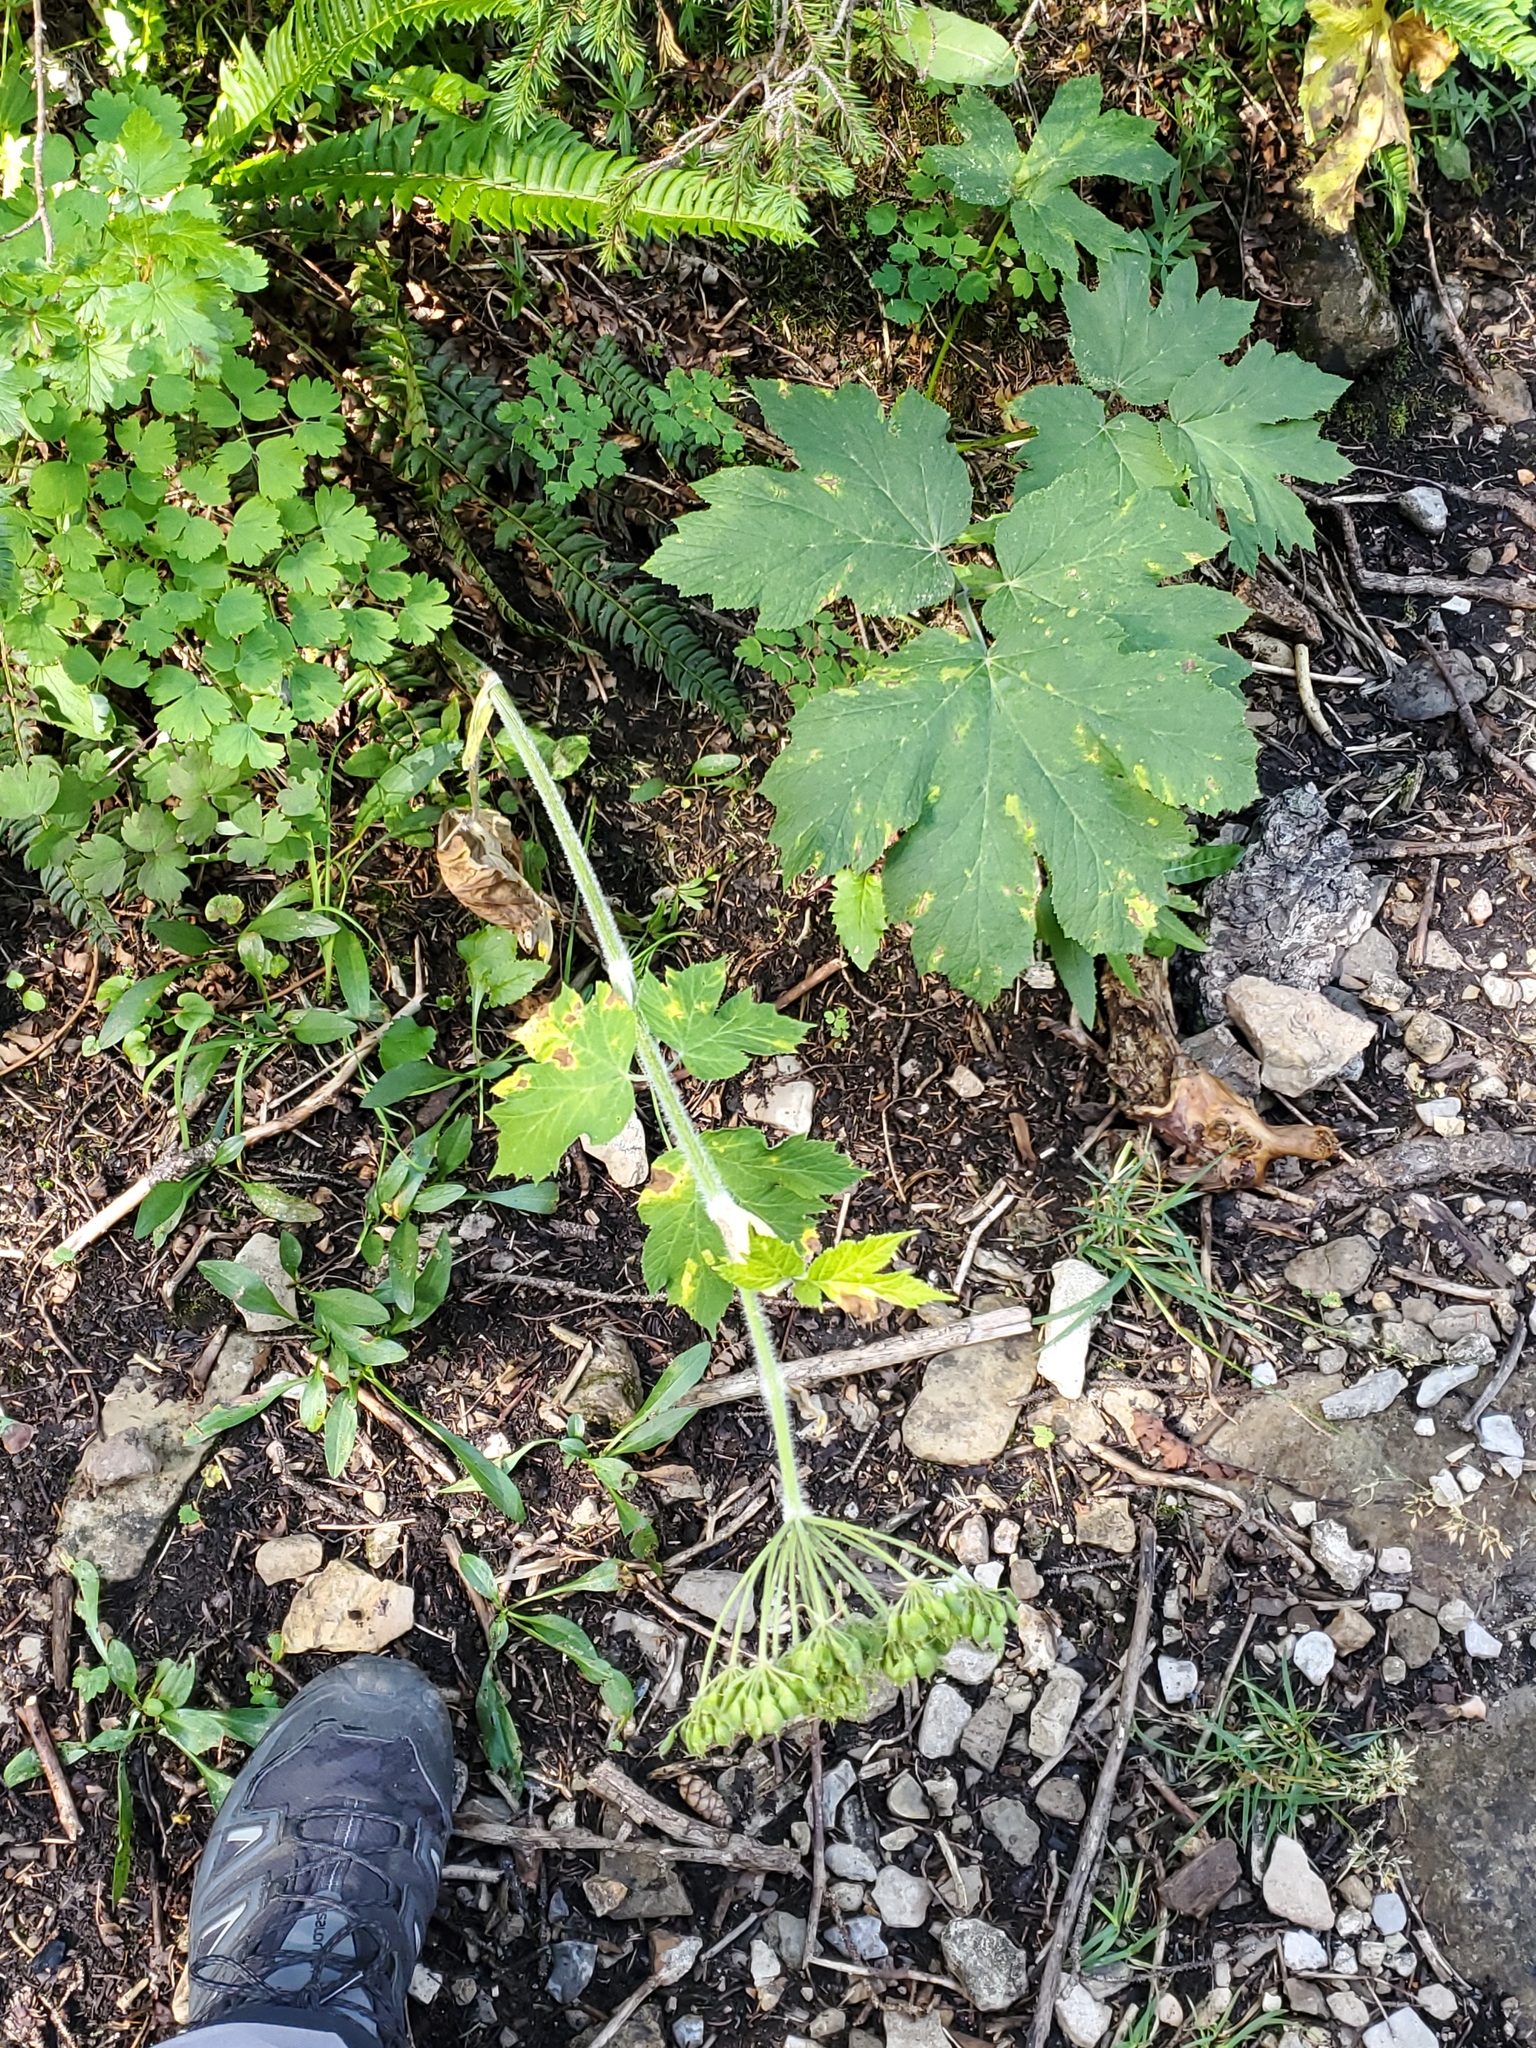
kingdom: Plantae
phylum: Tracheophyta
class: Magnoliopsida
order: Apiales
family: Apiaceae
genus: Heracleum
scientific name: Heracleum maximum
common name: American cow parsnip
